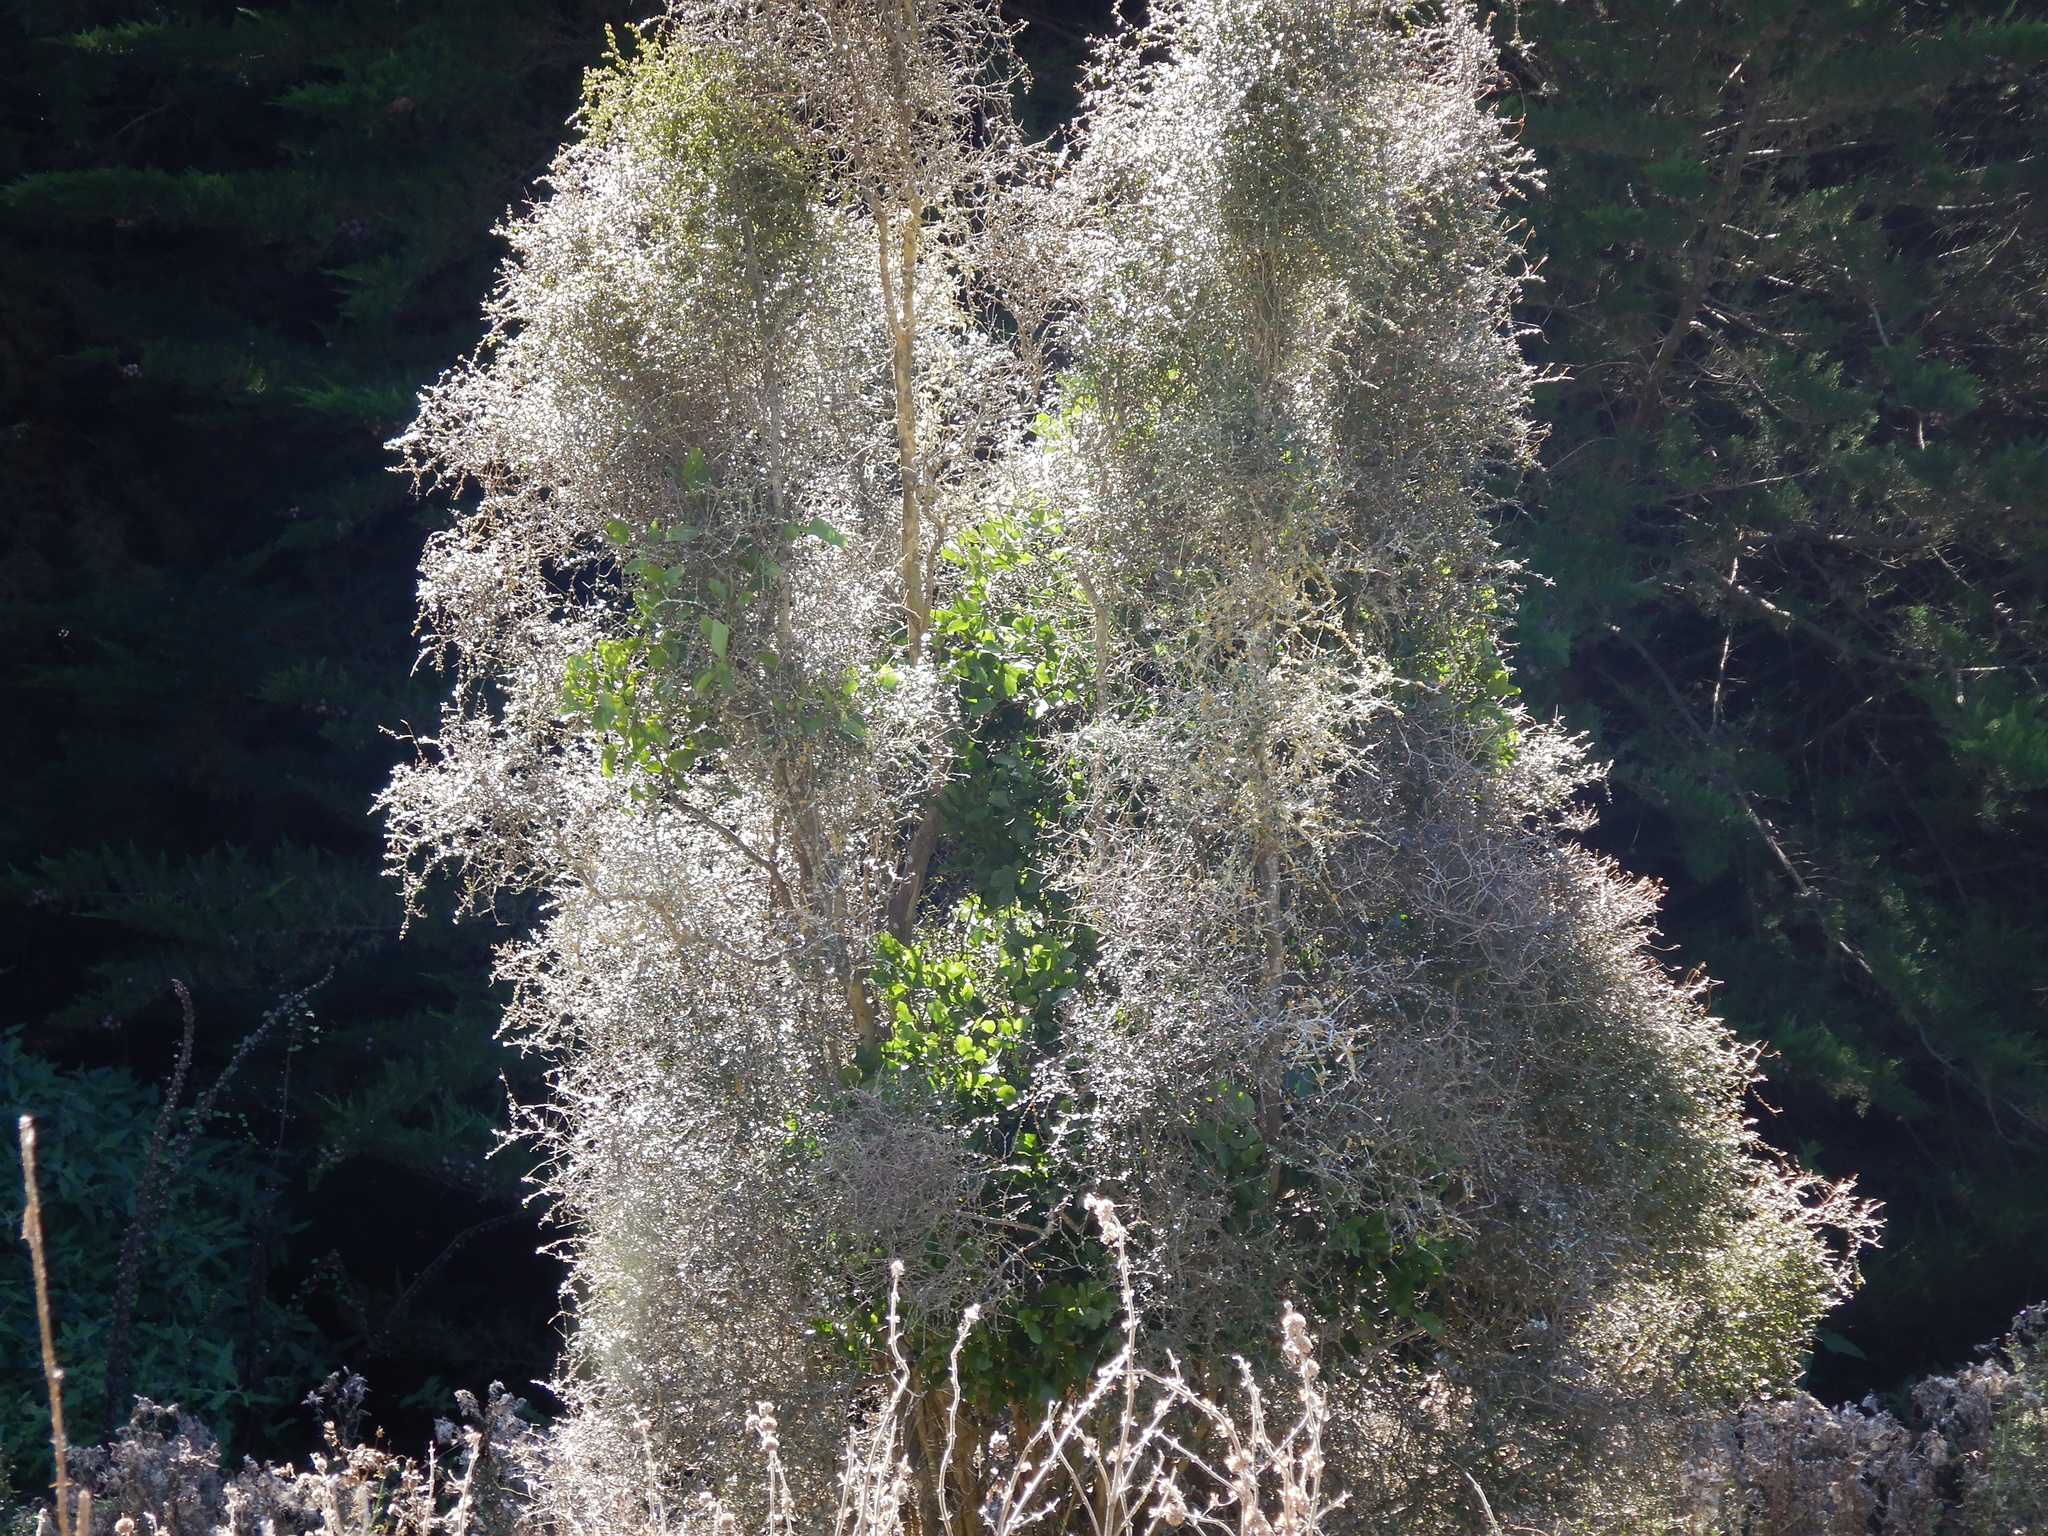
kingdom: Plantae
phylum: Tracheophyta
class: Magnoliopsida
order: Santalales
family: Loranthaceae
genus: Ileostylus
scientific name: Ileostylus micranthus
